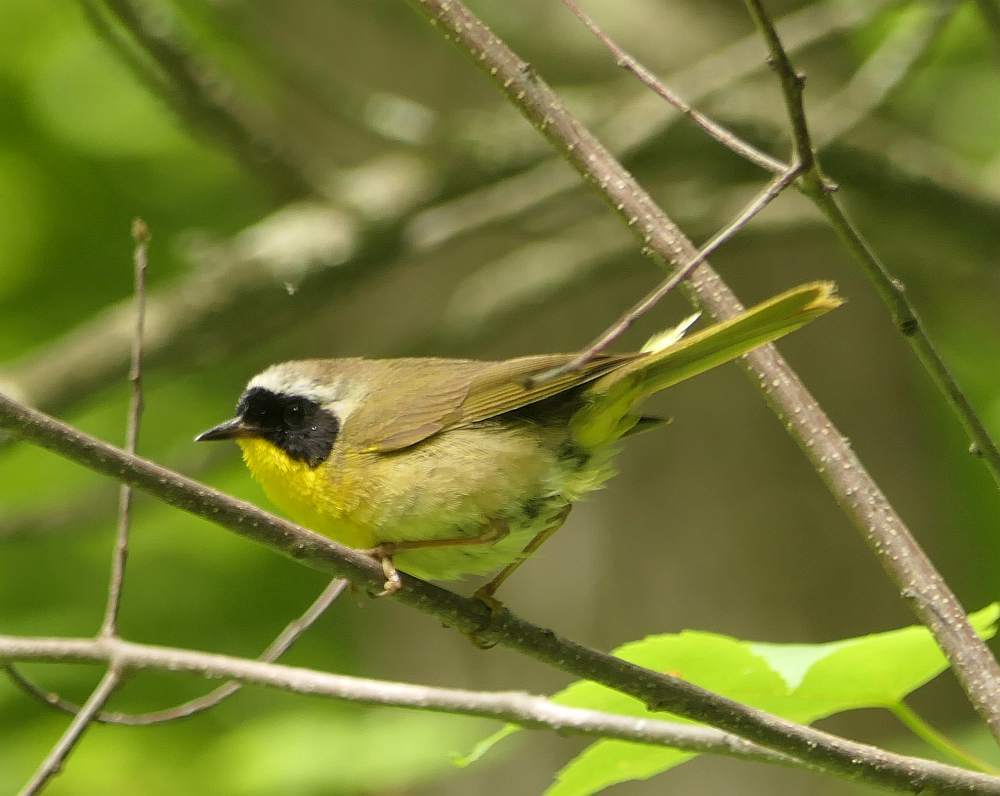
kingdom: Animalia
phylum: Chordata
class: Aves
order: Passeriformes
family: Parulidae
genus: Geothlypis
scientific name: Geothlypis trichas
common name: Common yellowthroat
